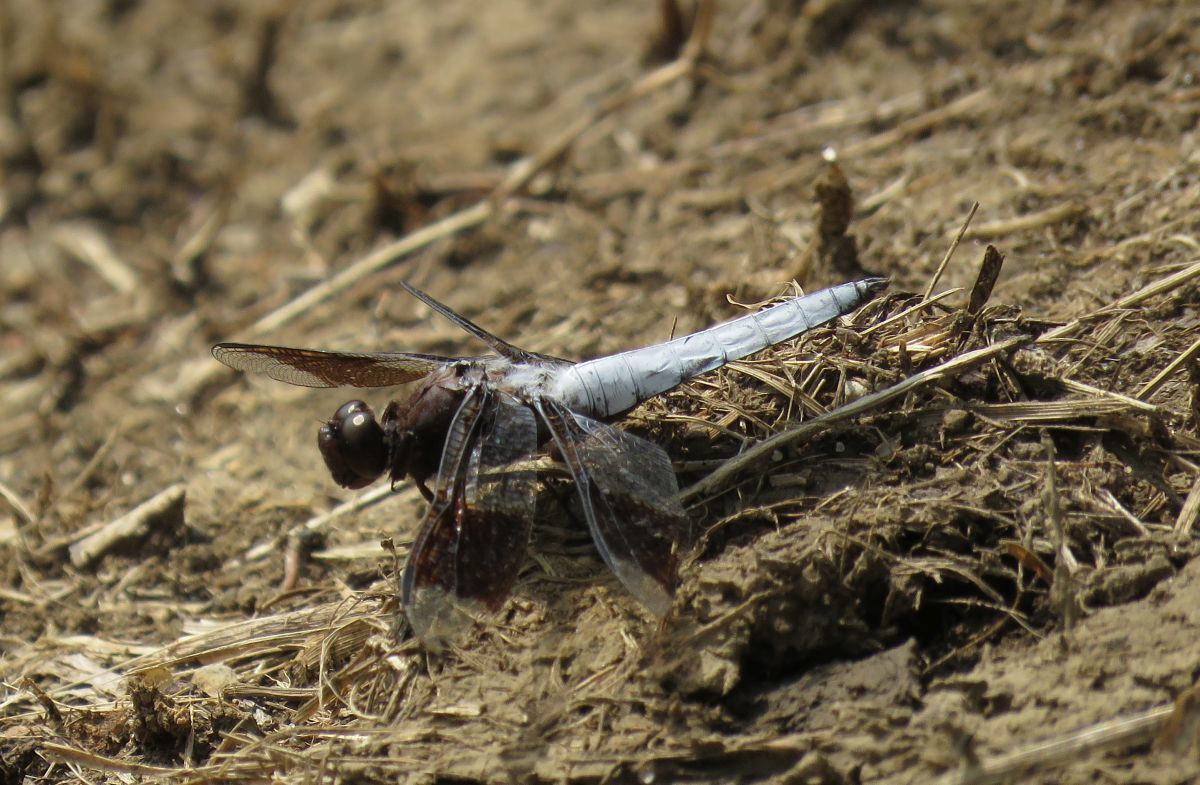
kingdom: Animalia
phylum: Arthropoda
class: Insecta
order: Odonata
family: Libellulidae
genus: Plathemis
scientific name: Plathemis lydia
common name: Common whitetail
